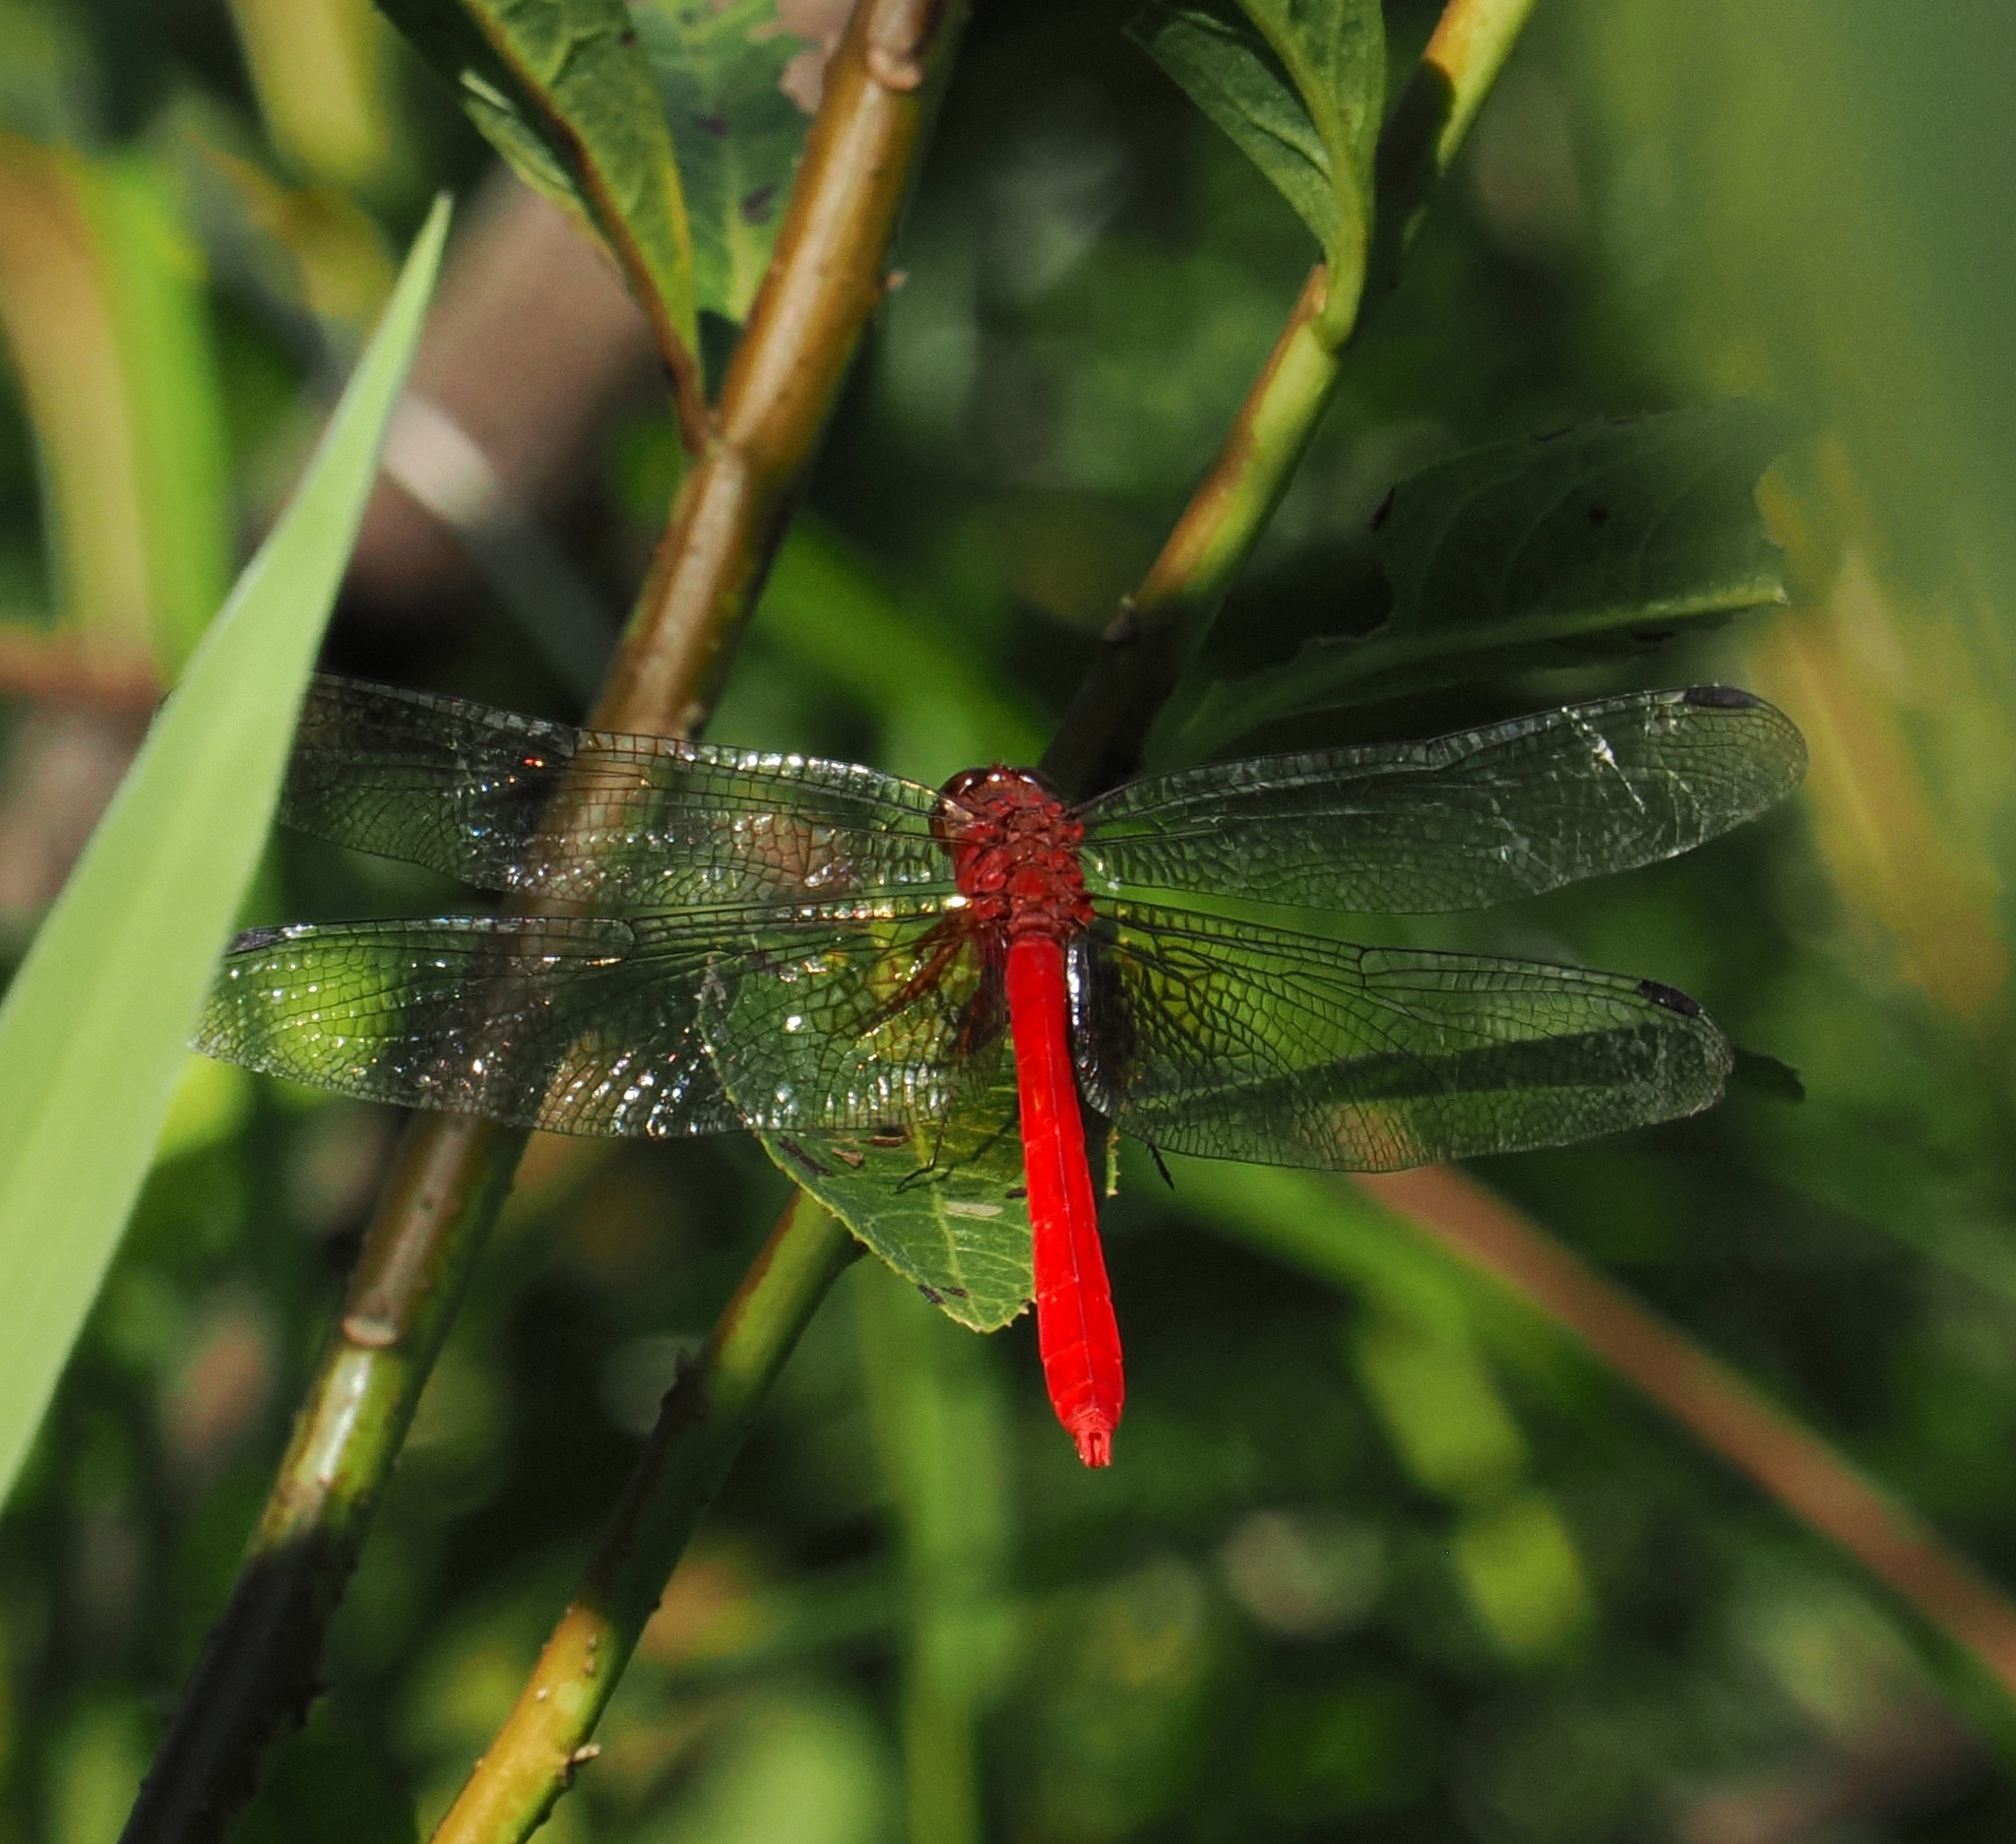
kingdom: Animalia
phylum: Arthropoda
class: Insecta
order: Odonata
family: Libellulidae
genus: Rhodopygia
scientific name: Rhodopygia cardinalis
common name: Cardinal redskimmer
